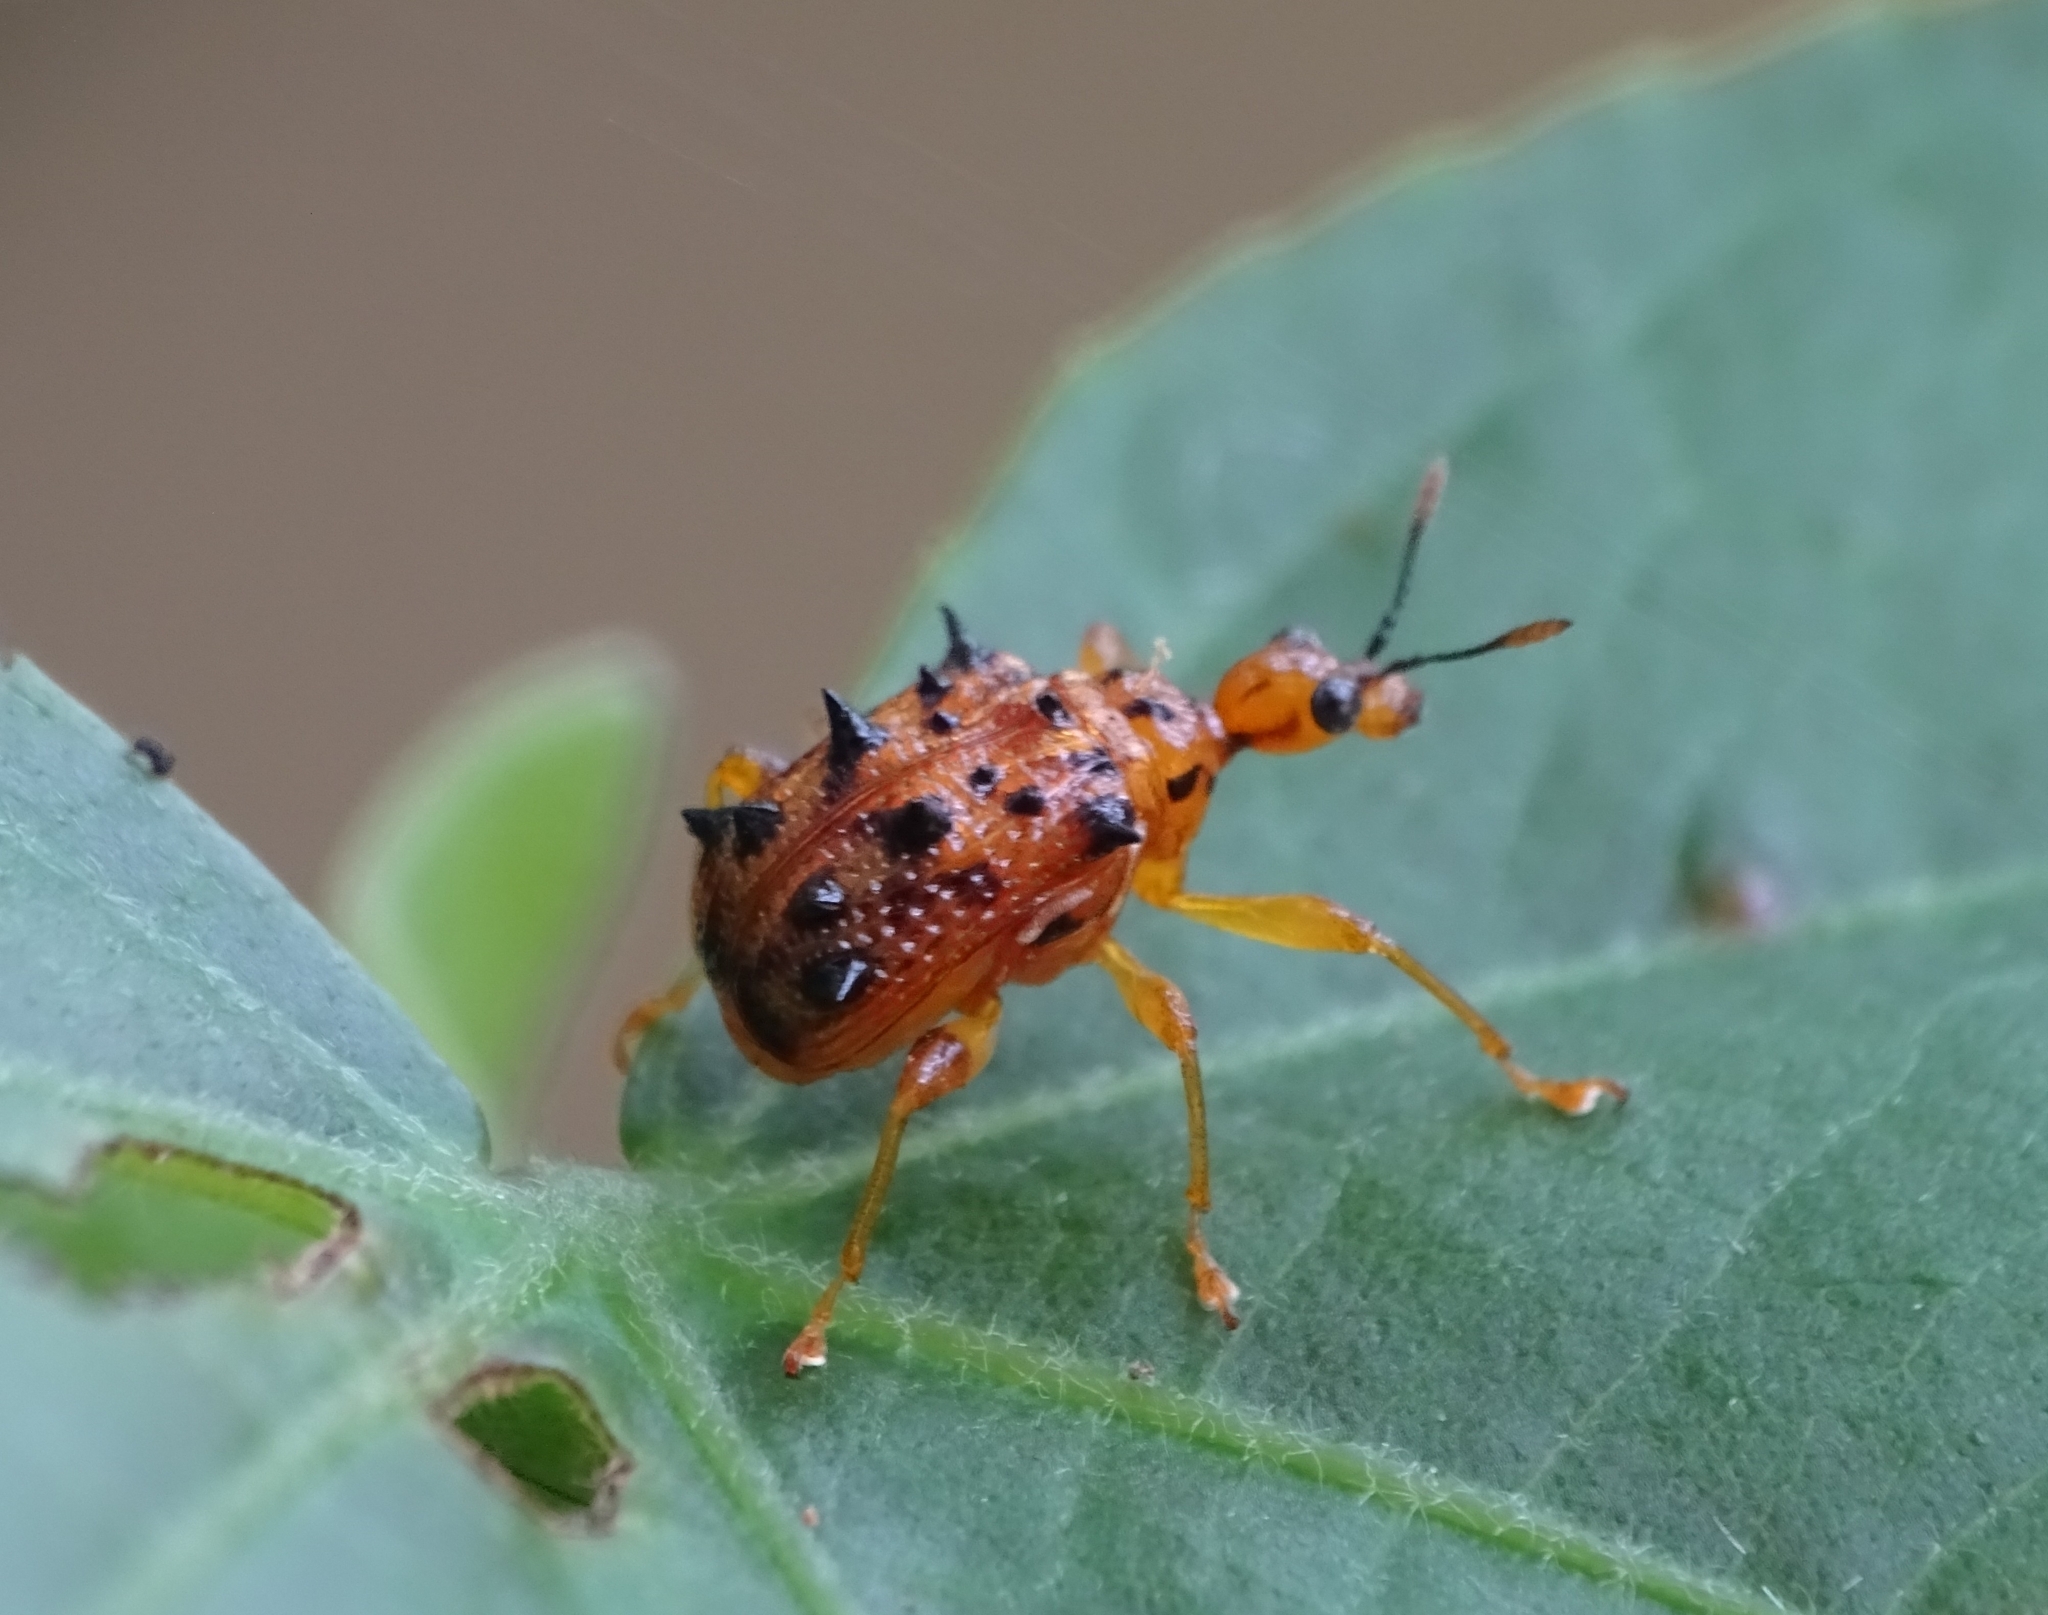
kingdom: Animalia
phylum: Arthropoda
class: Insecta
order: Coleoptera
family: Attelabidae
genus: Hoplapoderus
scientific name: Hoplapoderus echinatus
